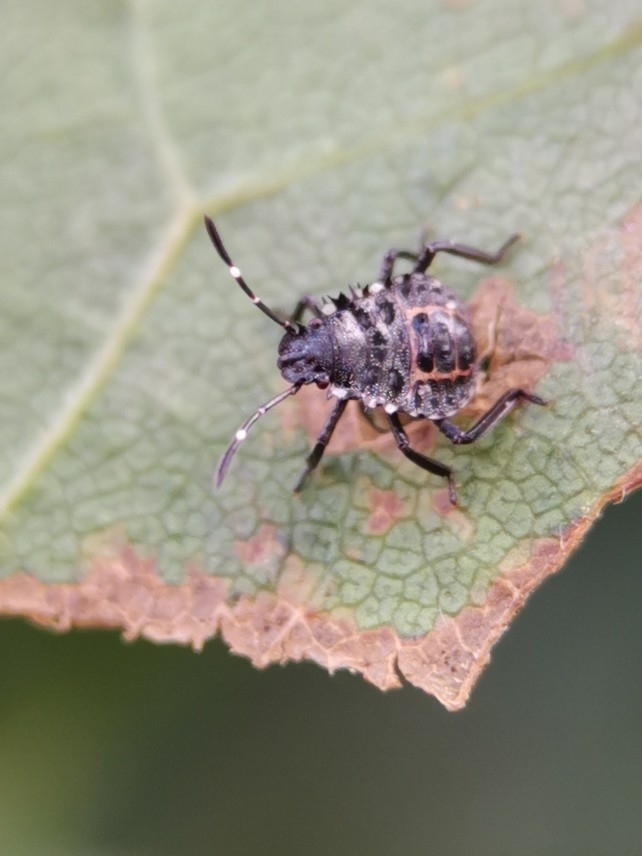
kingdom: Animalia
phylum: Arthropoda
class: Insecta
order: Hemiptera
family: Pentatomidae
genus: Halyomorpha
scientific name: Halyomorpha halys
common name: Brown marmorated stink bug
